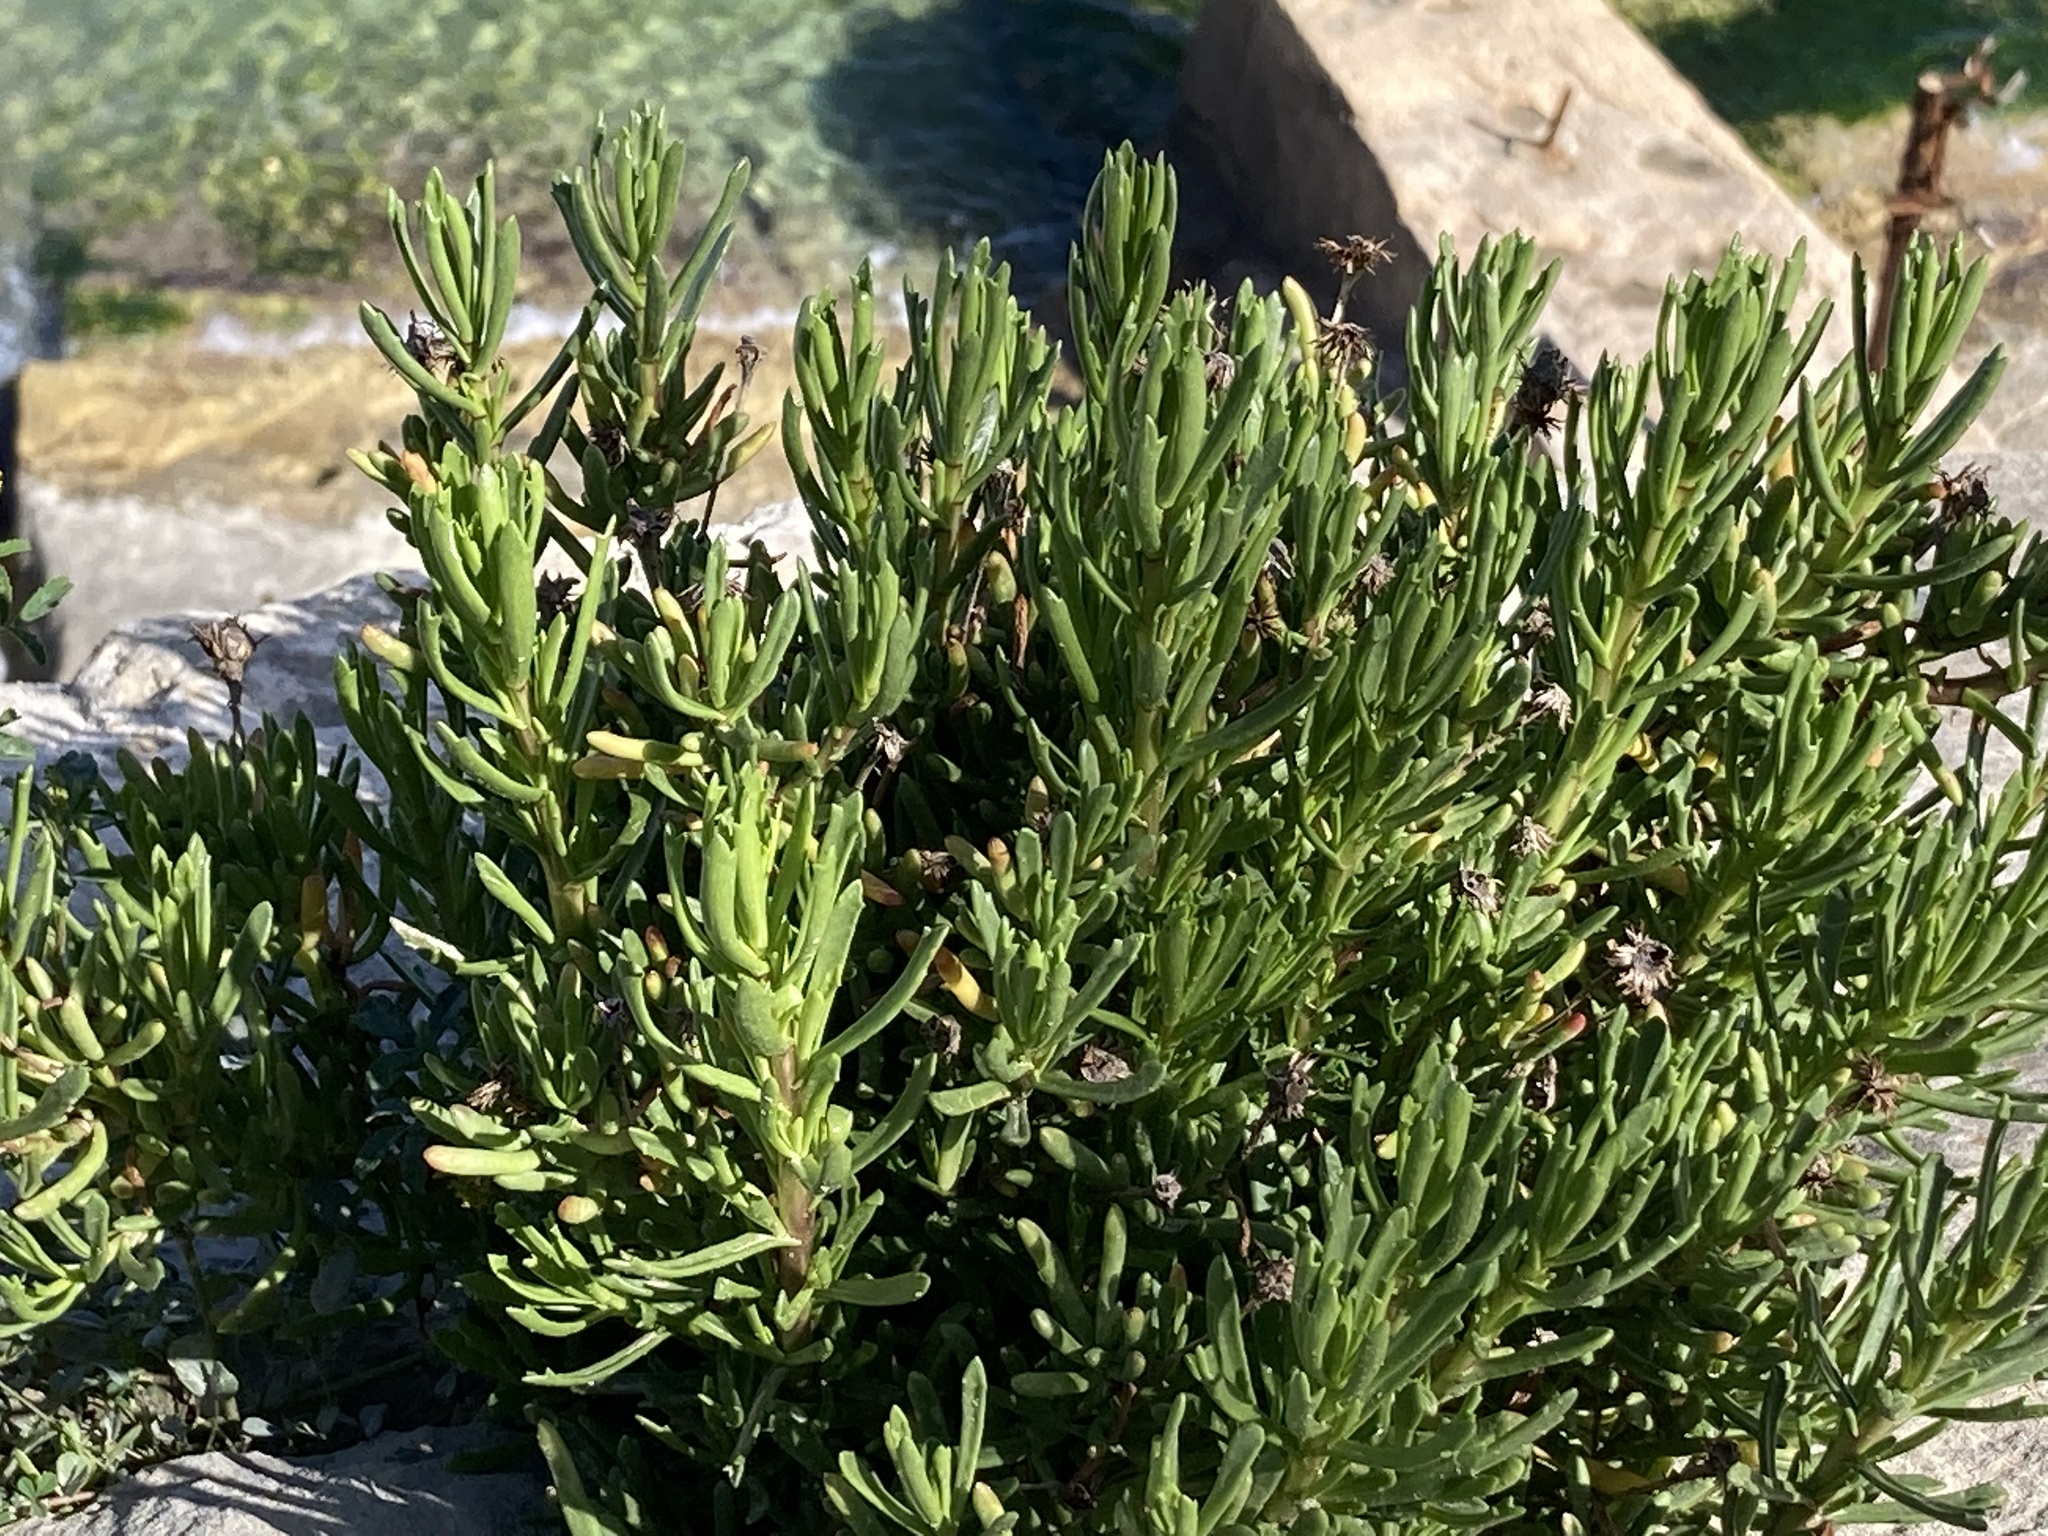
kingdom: Plantae
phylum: Tracheophyta
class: Magnoliopsida
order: Asterales
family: Asteraceae
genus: Limbarda
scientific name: Limbarda crithmoides
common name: Golden samphire
